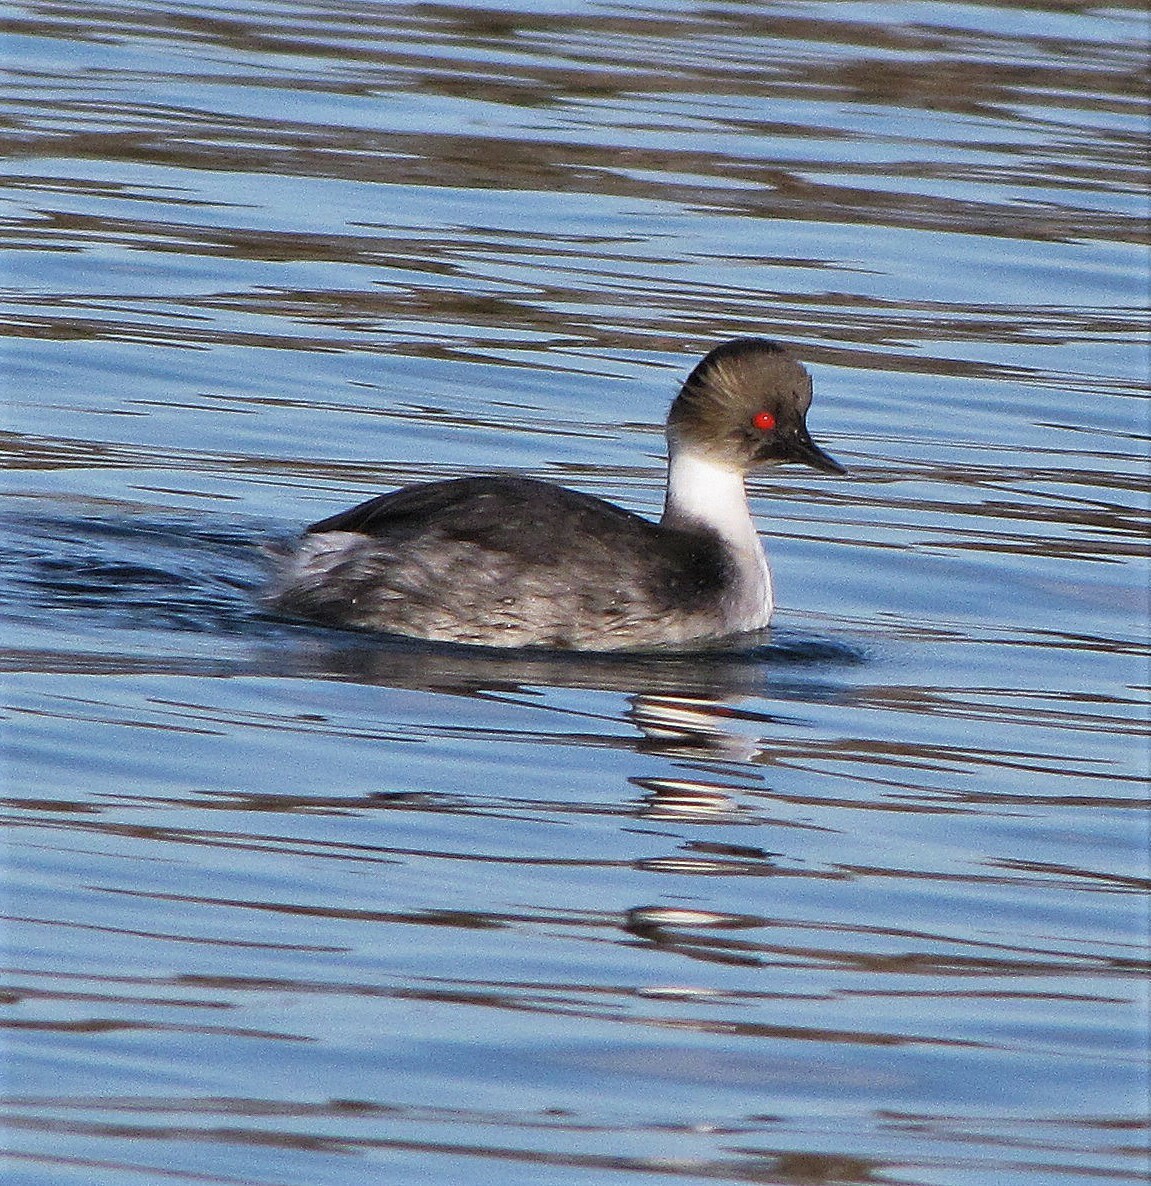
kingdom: Animalia
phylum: Chordata
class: Aves
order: Podicipediformes
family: Podicipedidae
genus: Podiceps
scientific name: Podiceps occipitalis
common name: Silvery grebe
